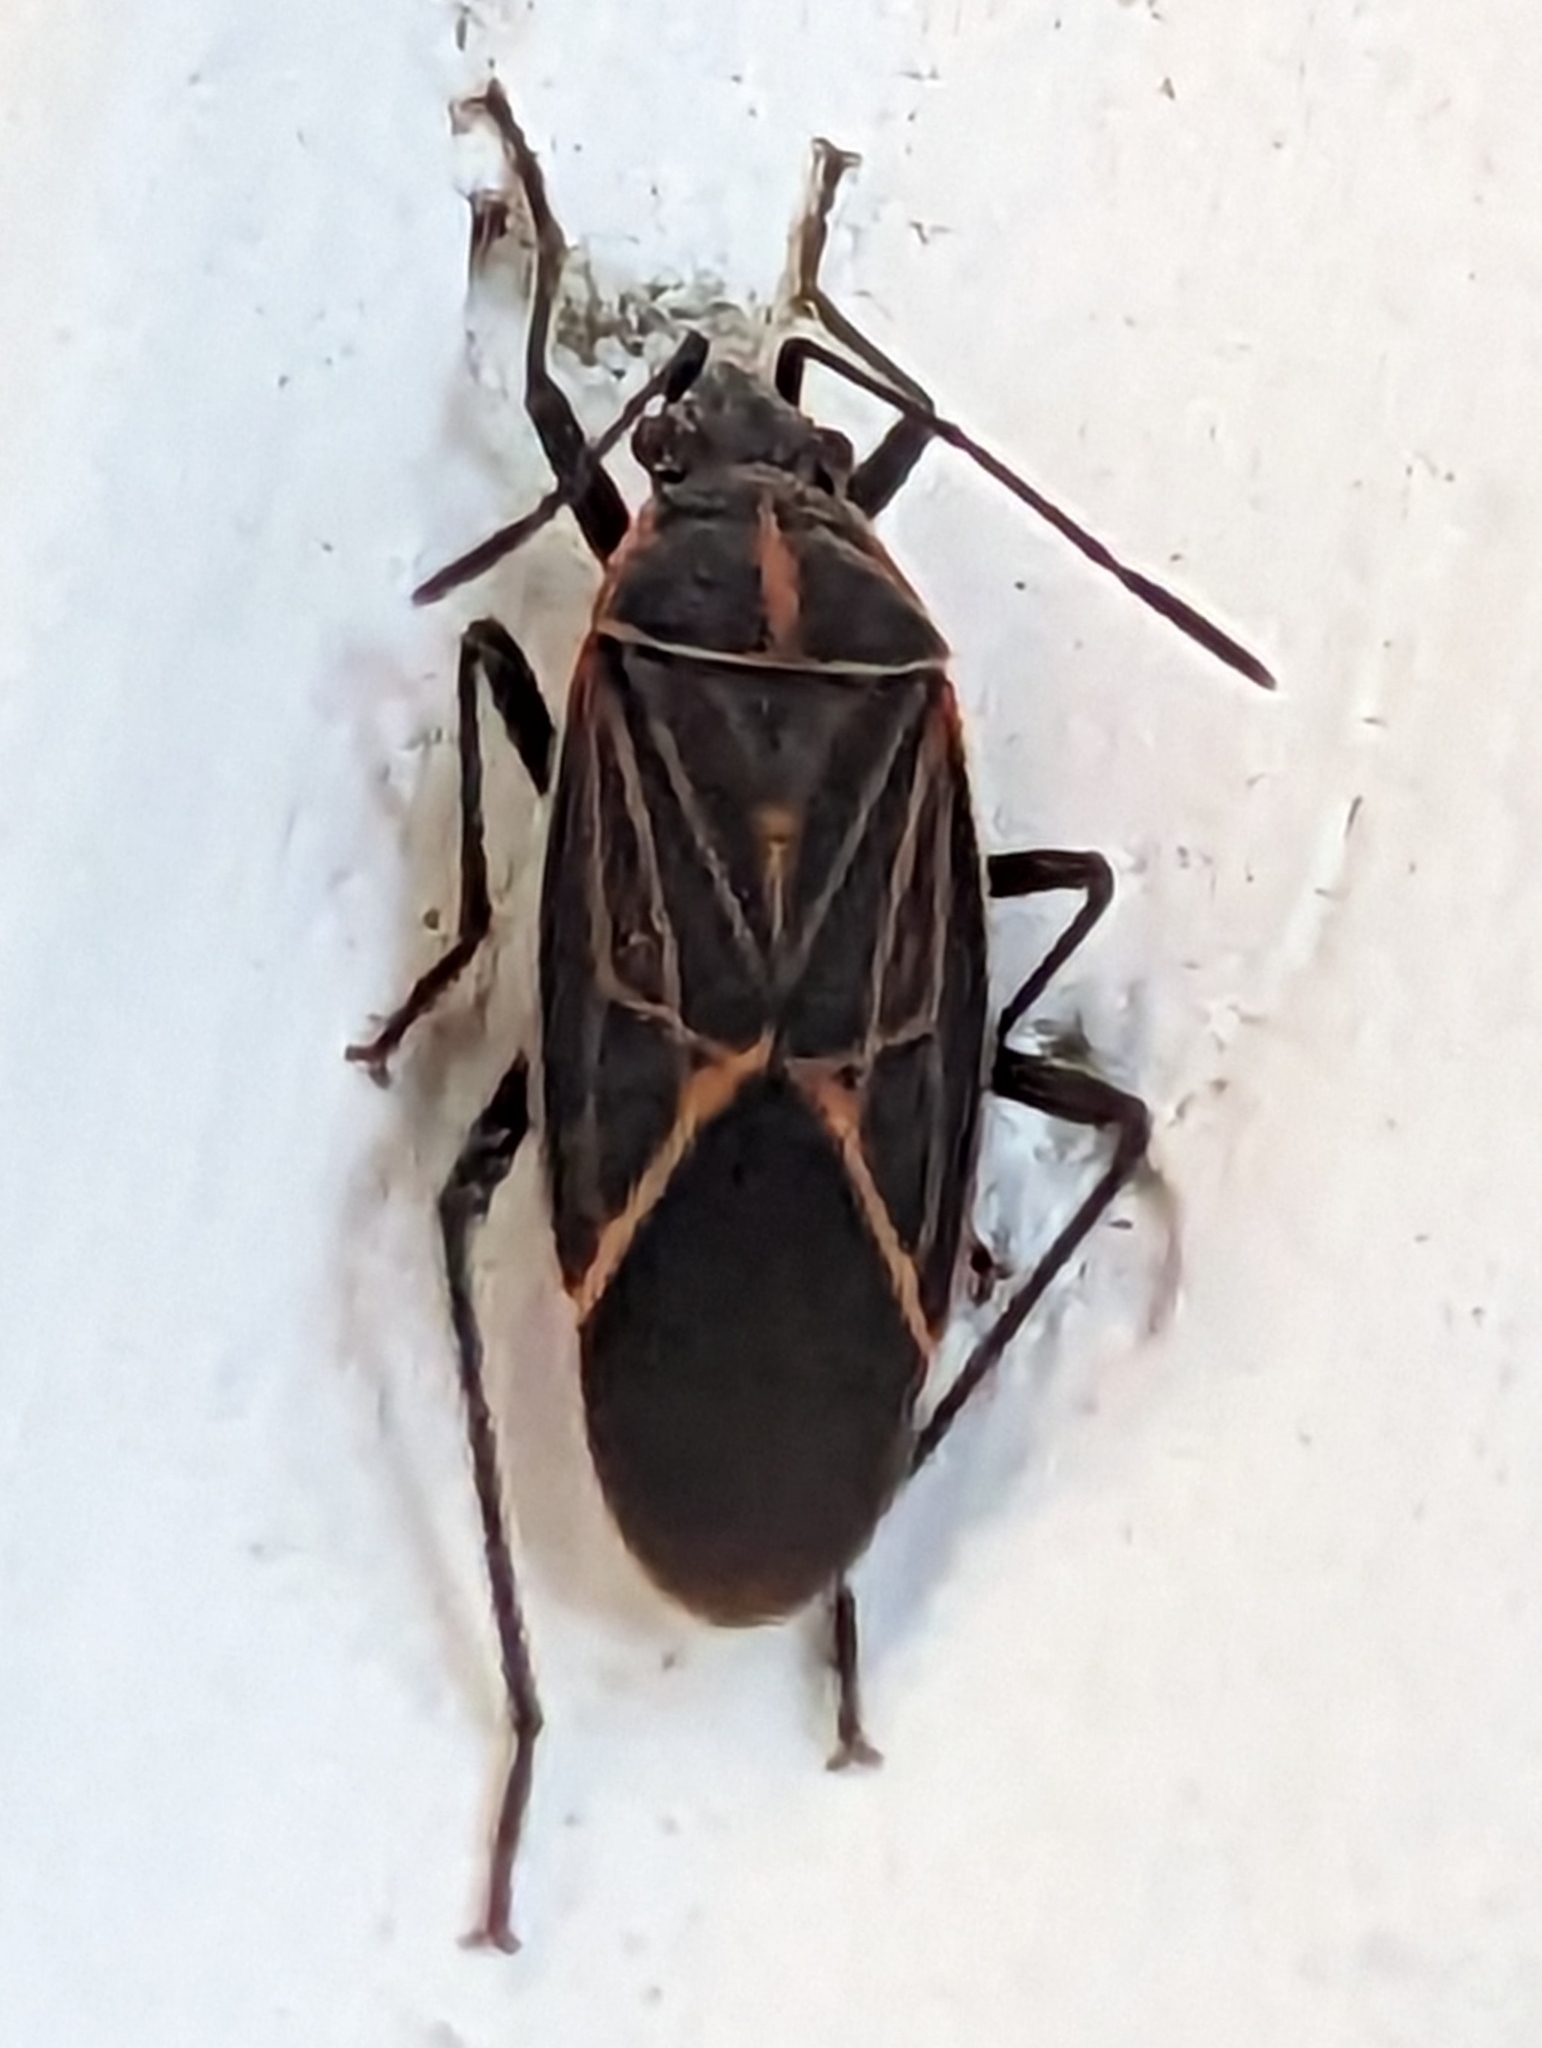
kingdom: Animalia
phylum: Arthropoda
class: Insecta
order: Hemiptera
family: Rhopalidae
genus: Boisea
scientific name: Boisea rubrolineata
